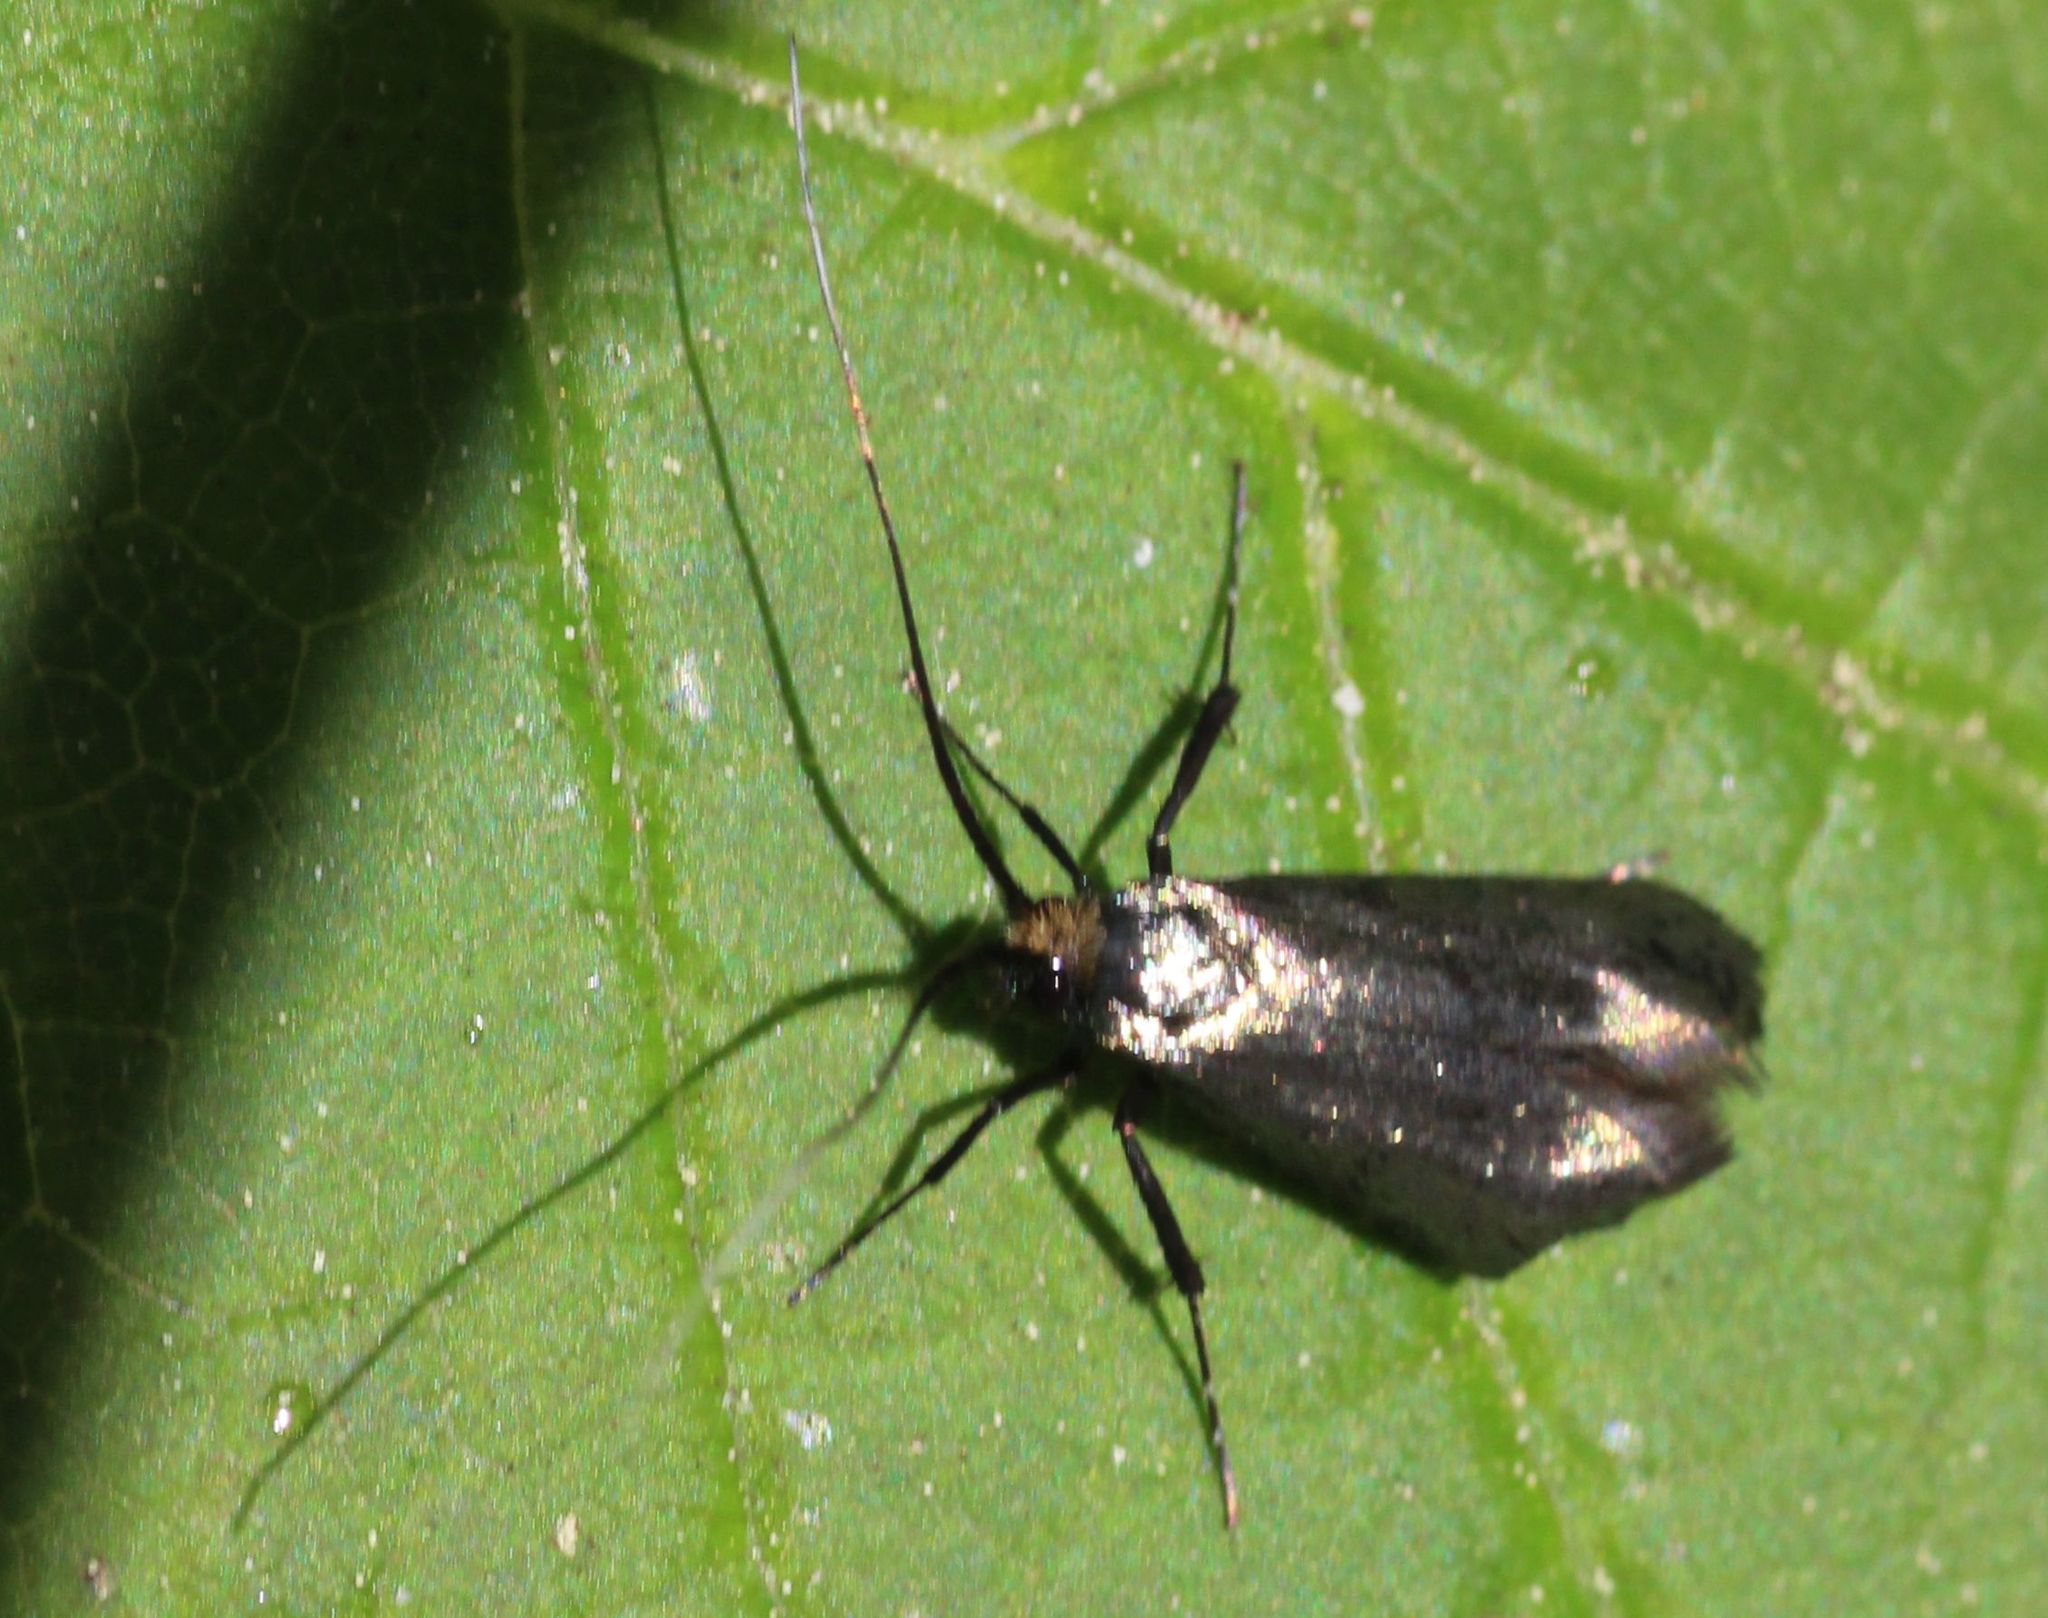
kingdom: Animalia
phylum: Arthropoda
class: Insecta
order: Lepidoptera
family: Adelidae
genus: Adela
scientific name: Adela viridella
